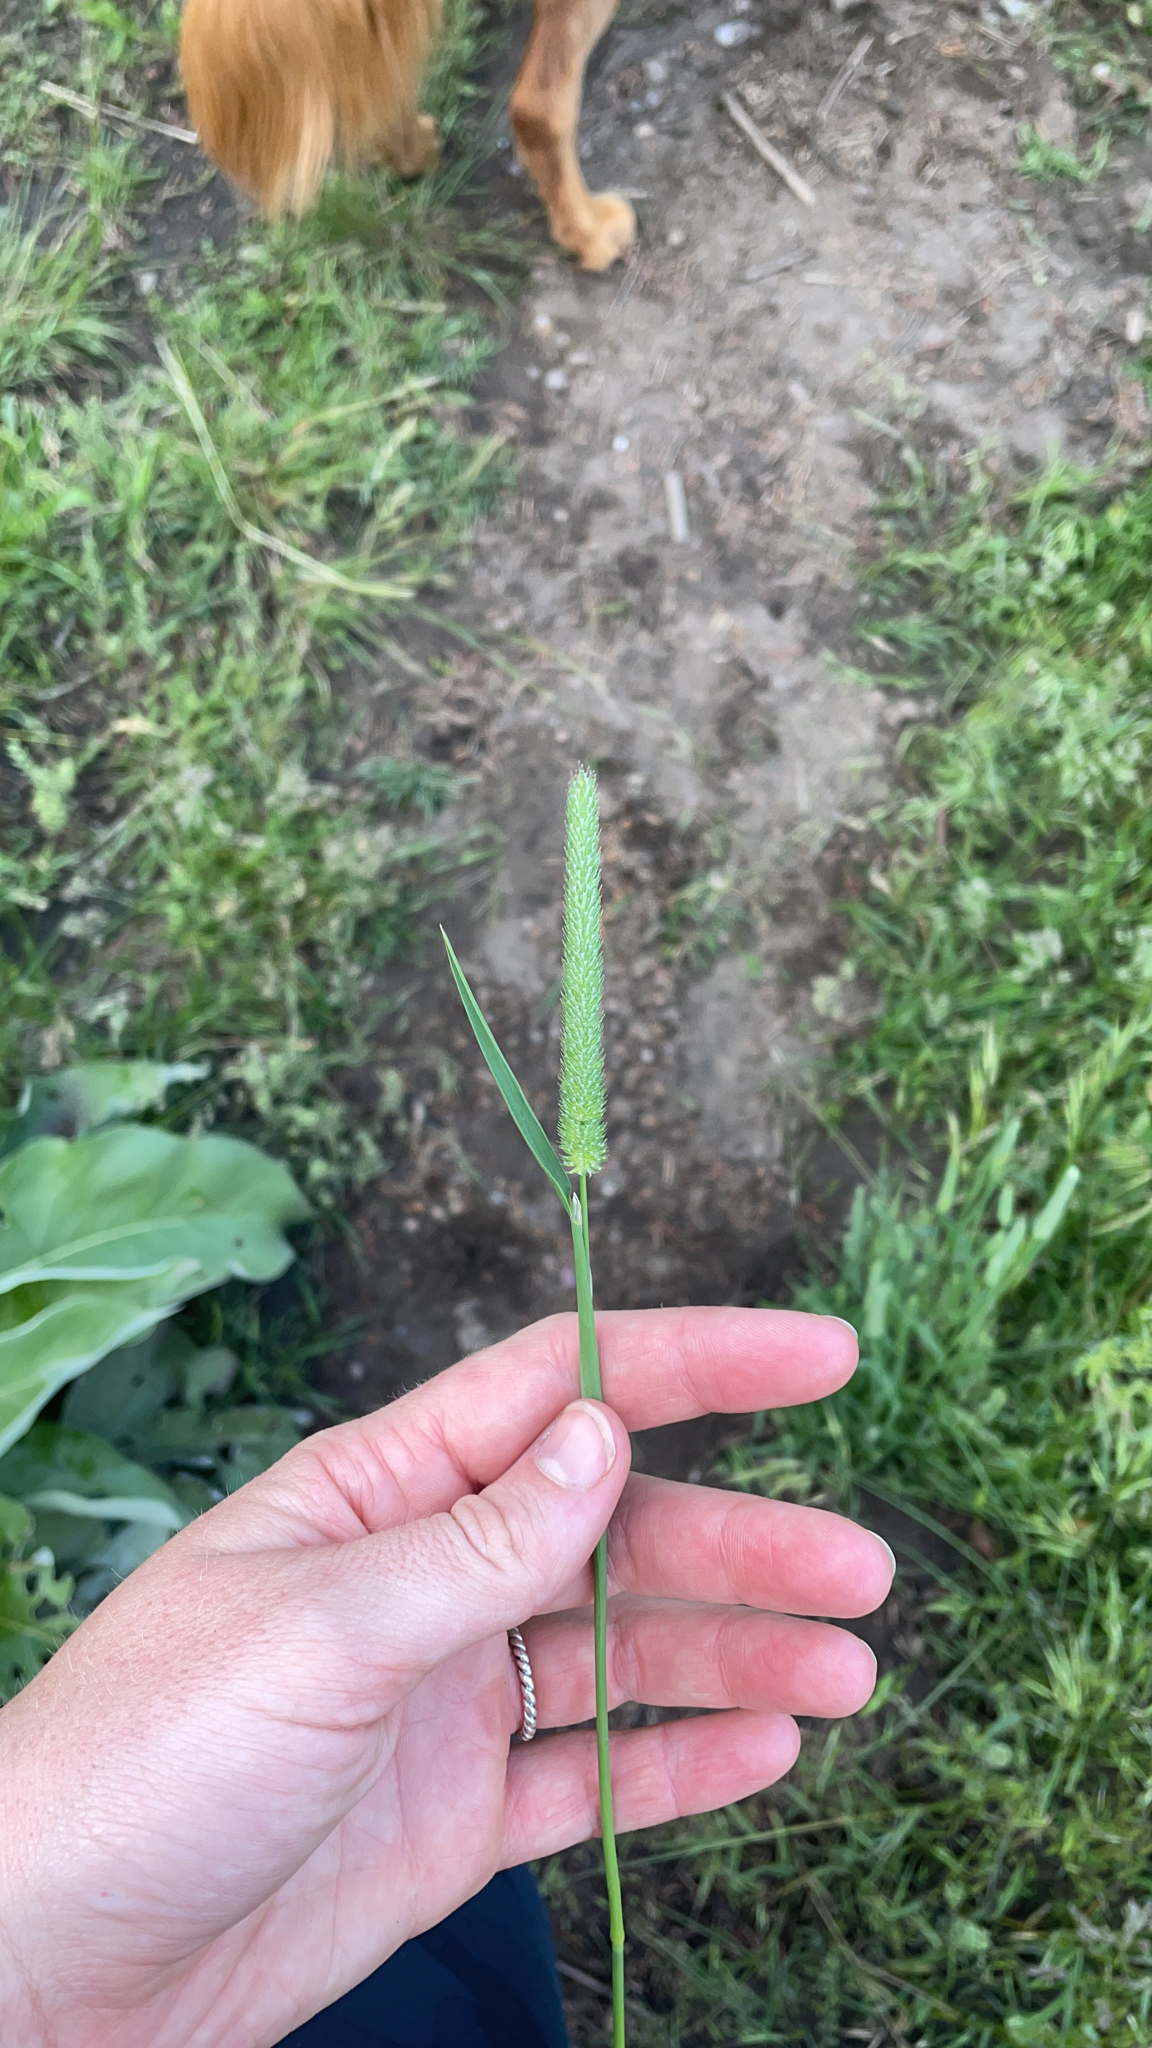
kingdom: Plantae
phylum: Tracheophyta
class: Liliopsida
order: Poales
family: Poaceae
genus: Phleum
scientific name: Phleum pratense
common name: Timothy grass
